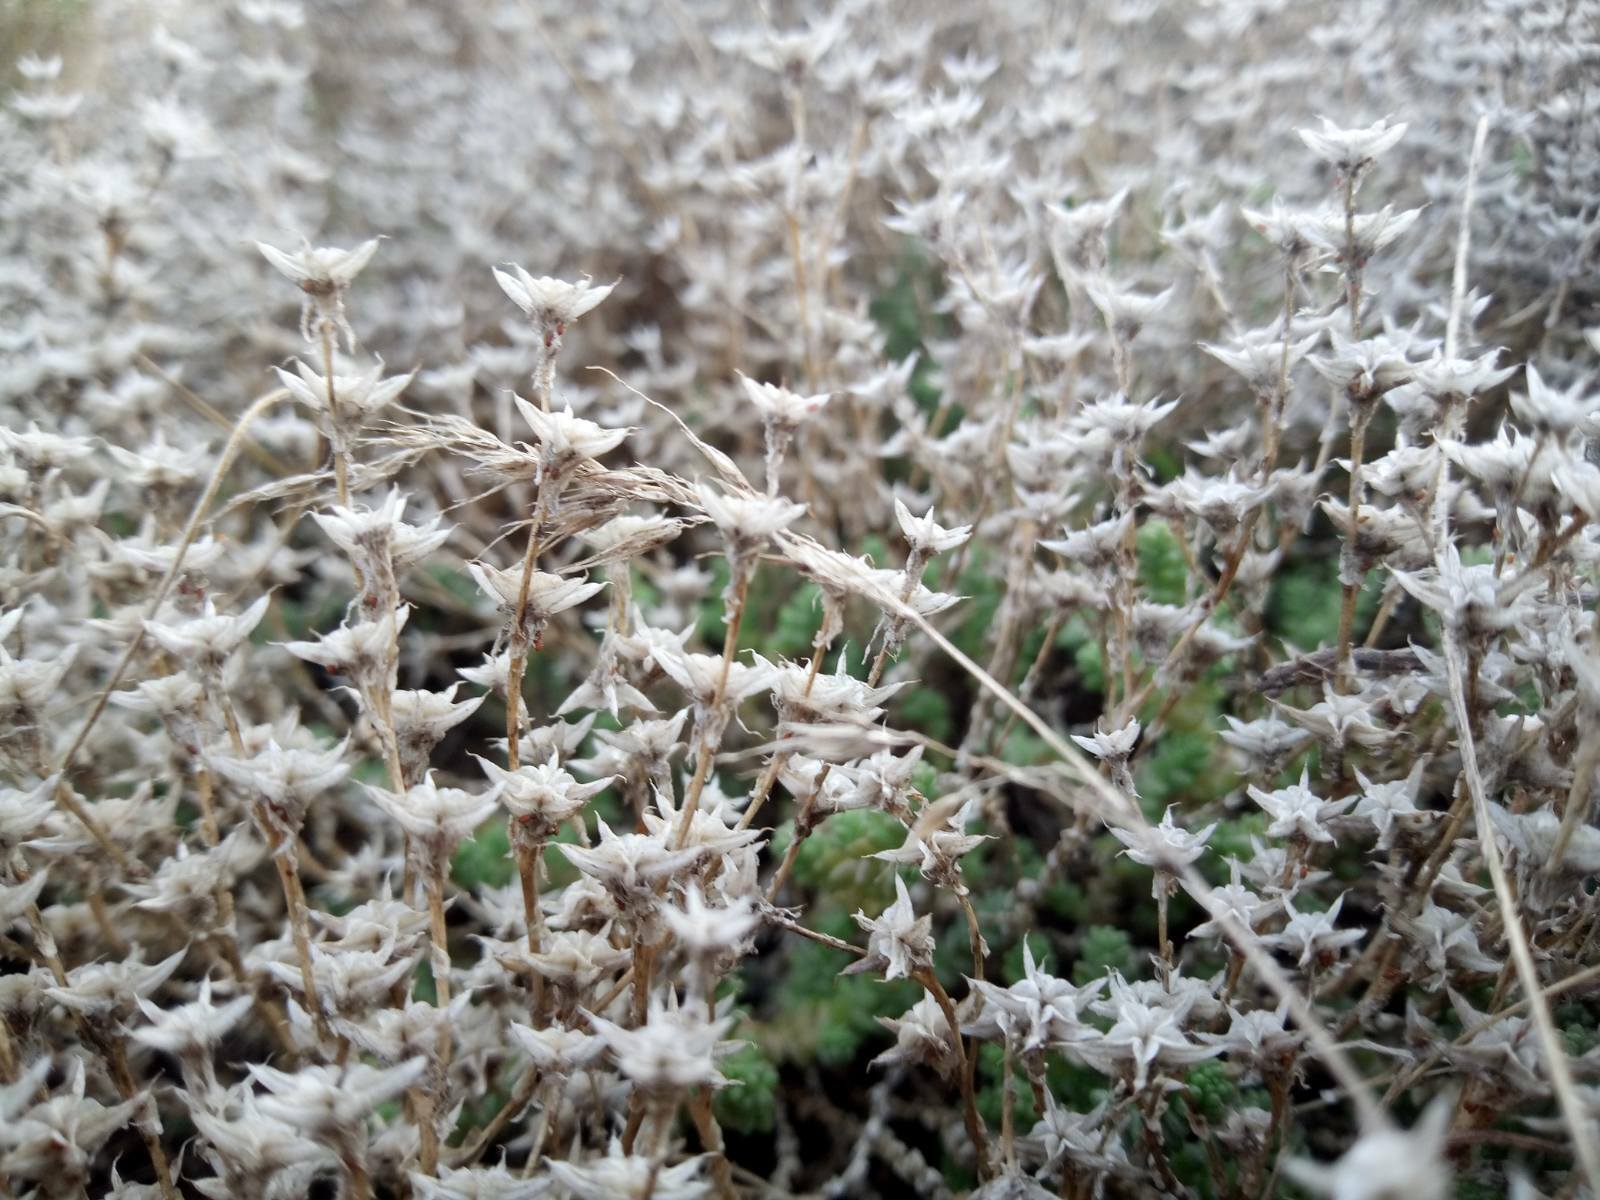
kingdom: Plantae
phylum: Tracheophyta
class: Magnoliopsida
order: Saxifragales
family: Crassulaceae
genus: Sedum
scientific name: Sedum acre
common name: Biting stonecrop
